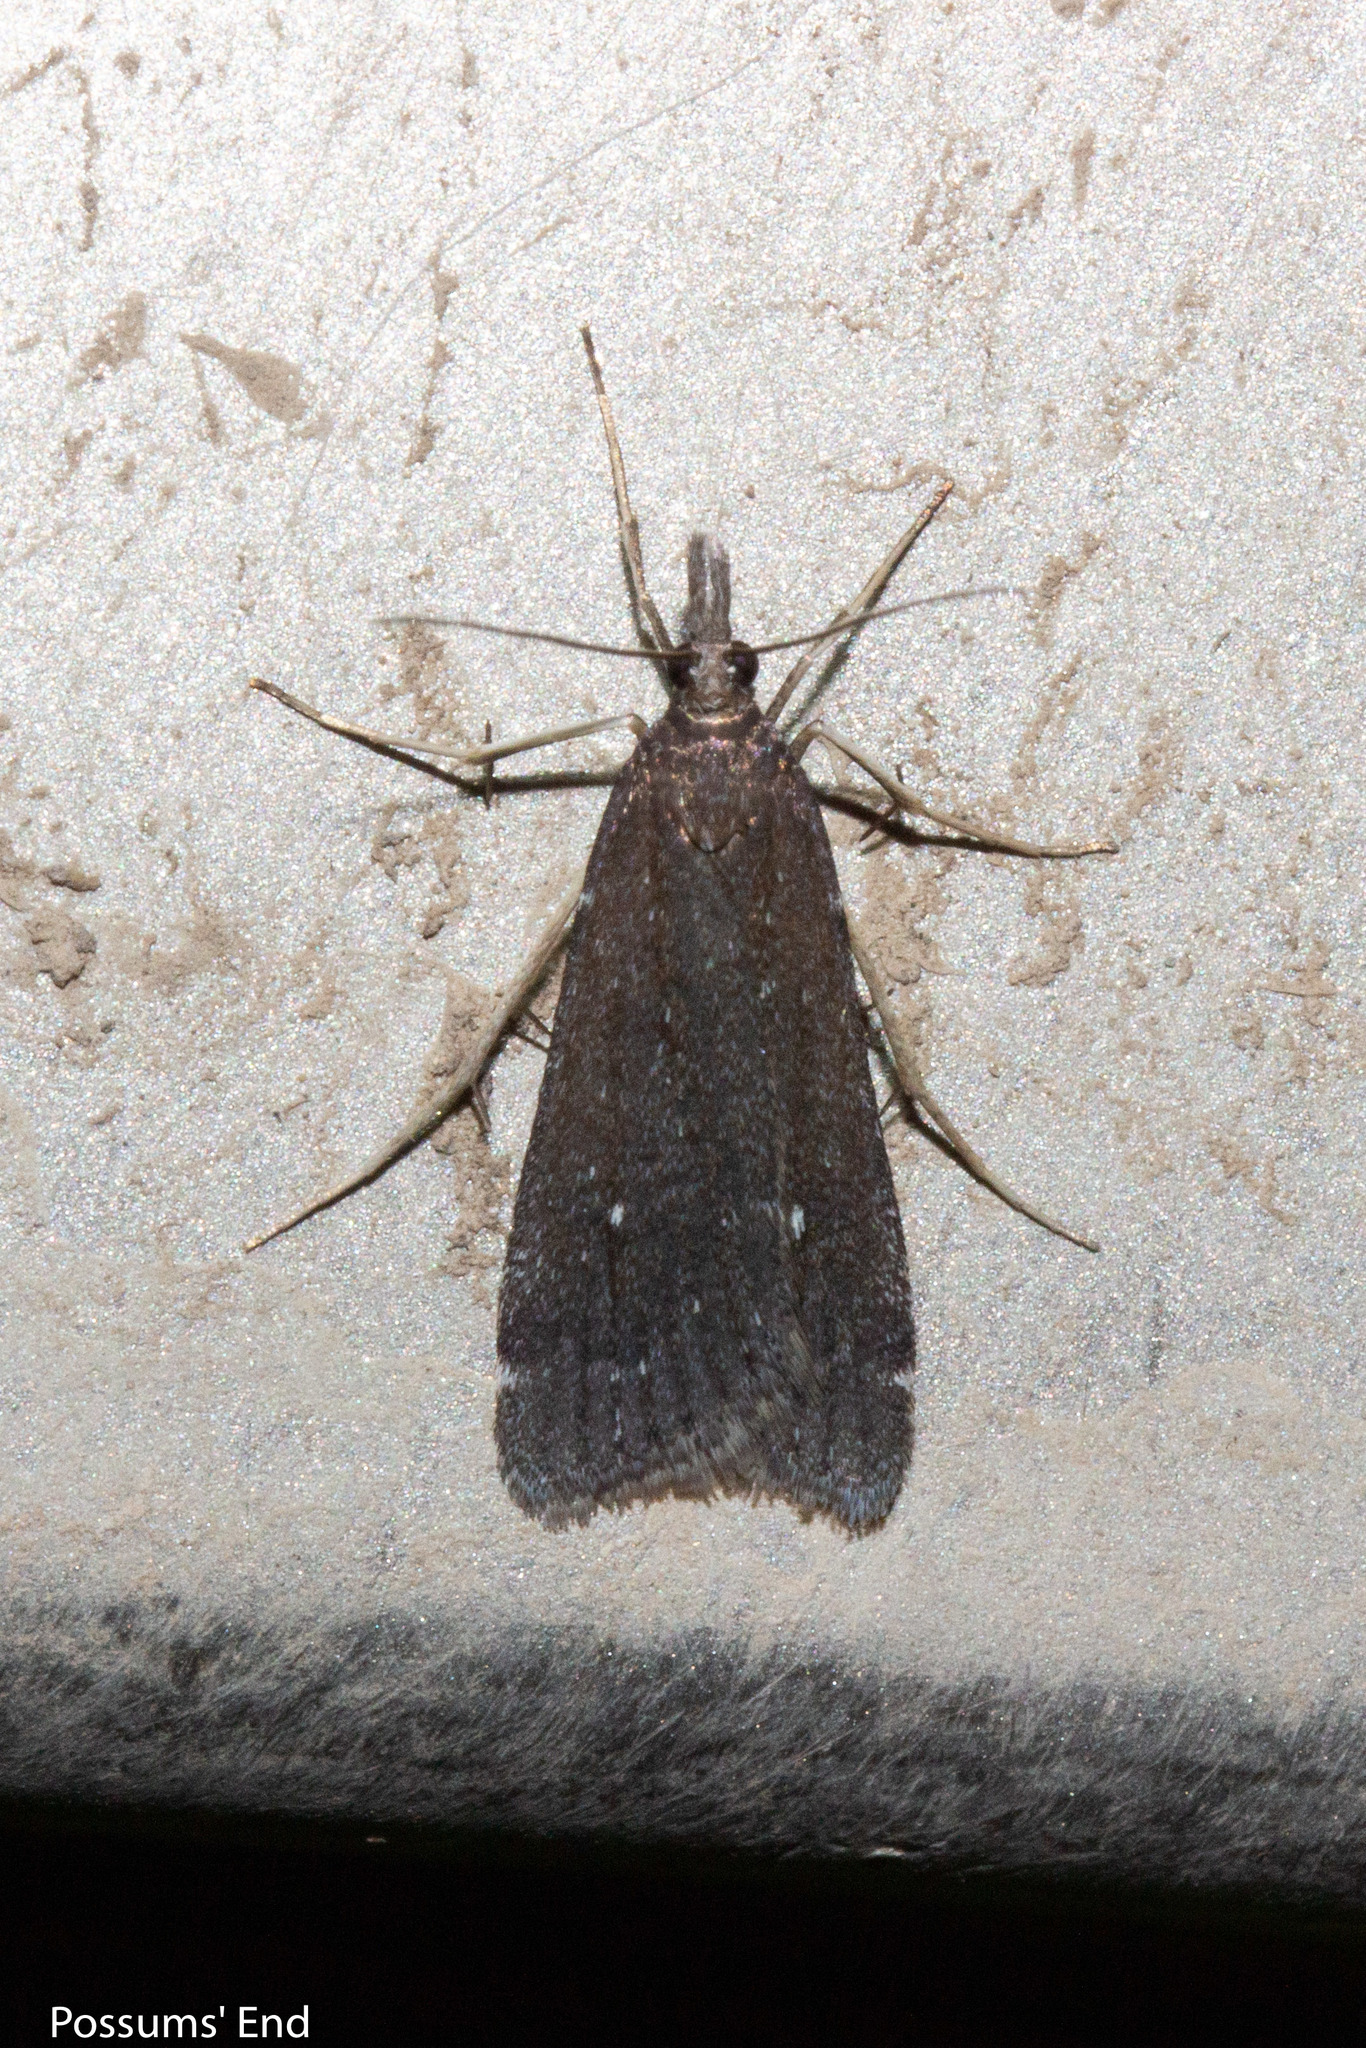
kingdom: Animalia
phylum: Arthropoda
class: Insecta
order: Lepidoptera
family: Crambidae
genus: Eudonia
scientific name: Eudonia oculata
